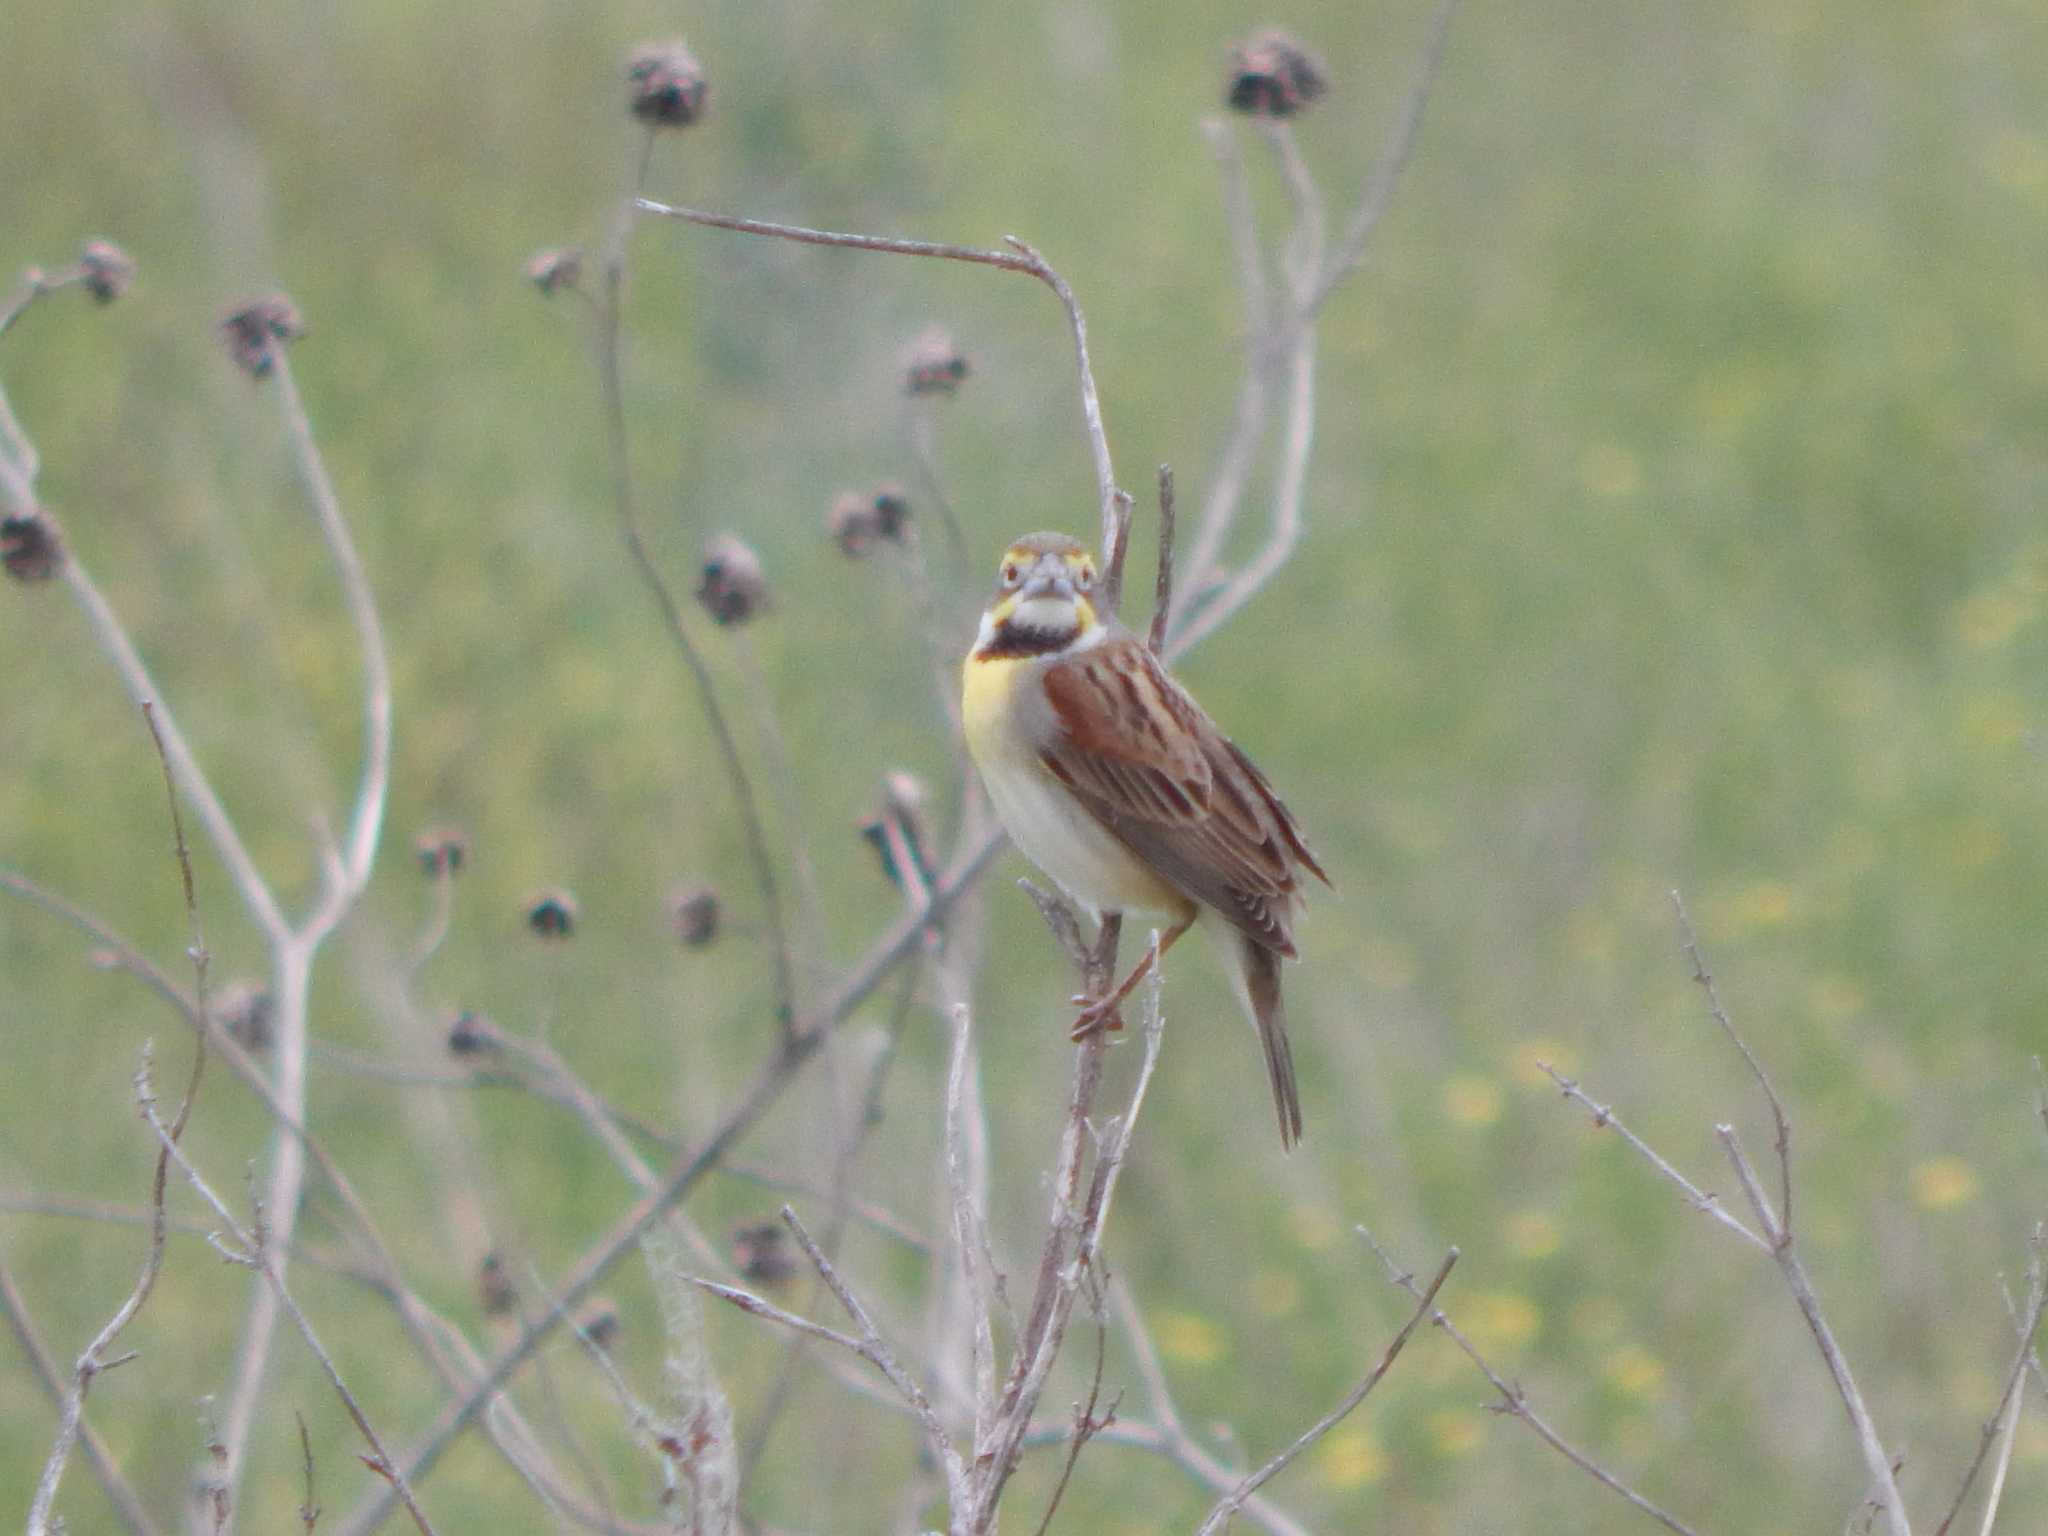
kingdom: Animalia
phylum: Chordata
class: Aves
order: Passeriformes
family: Cardinalidae
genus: Spiza
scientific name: Spiza americana
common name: Dickcissel
